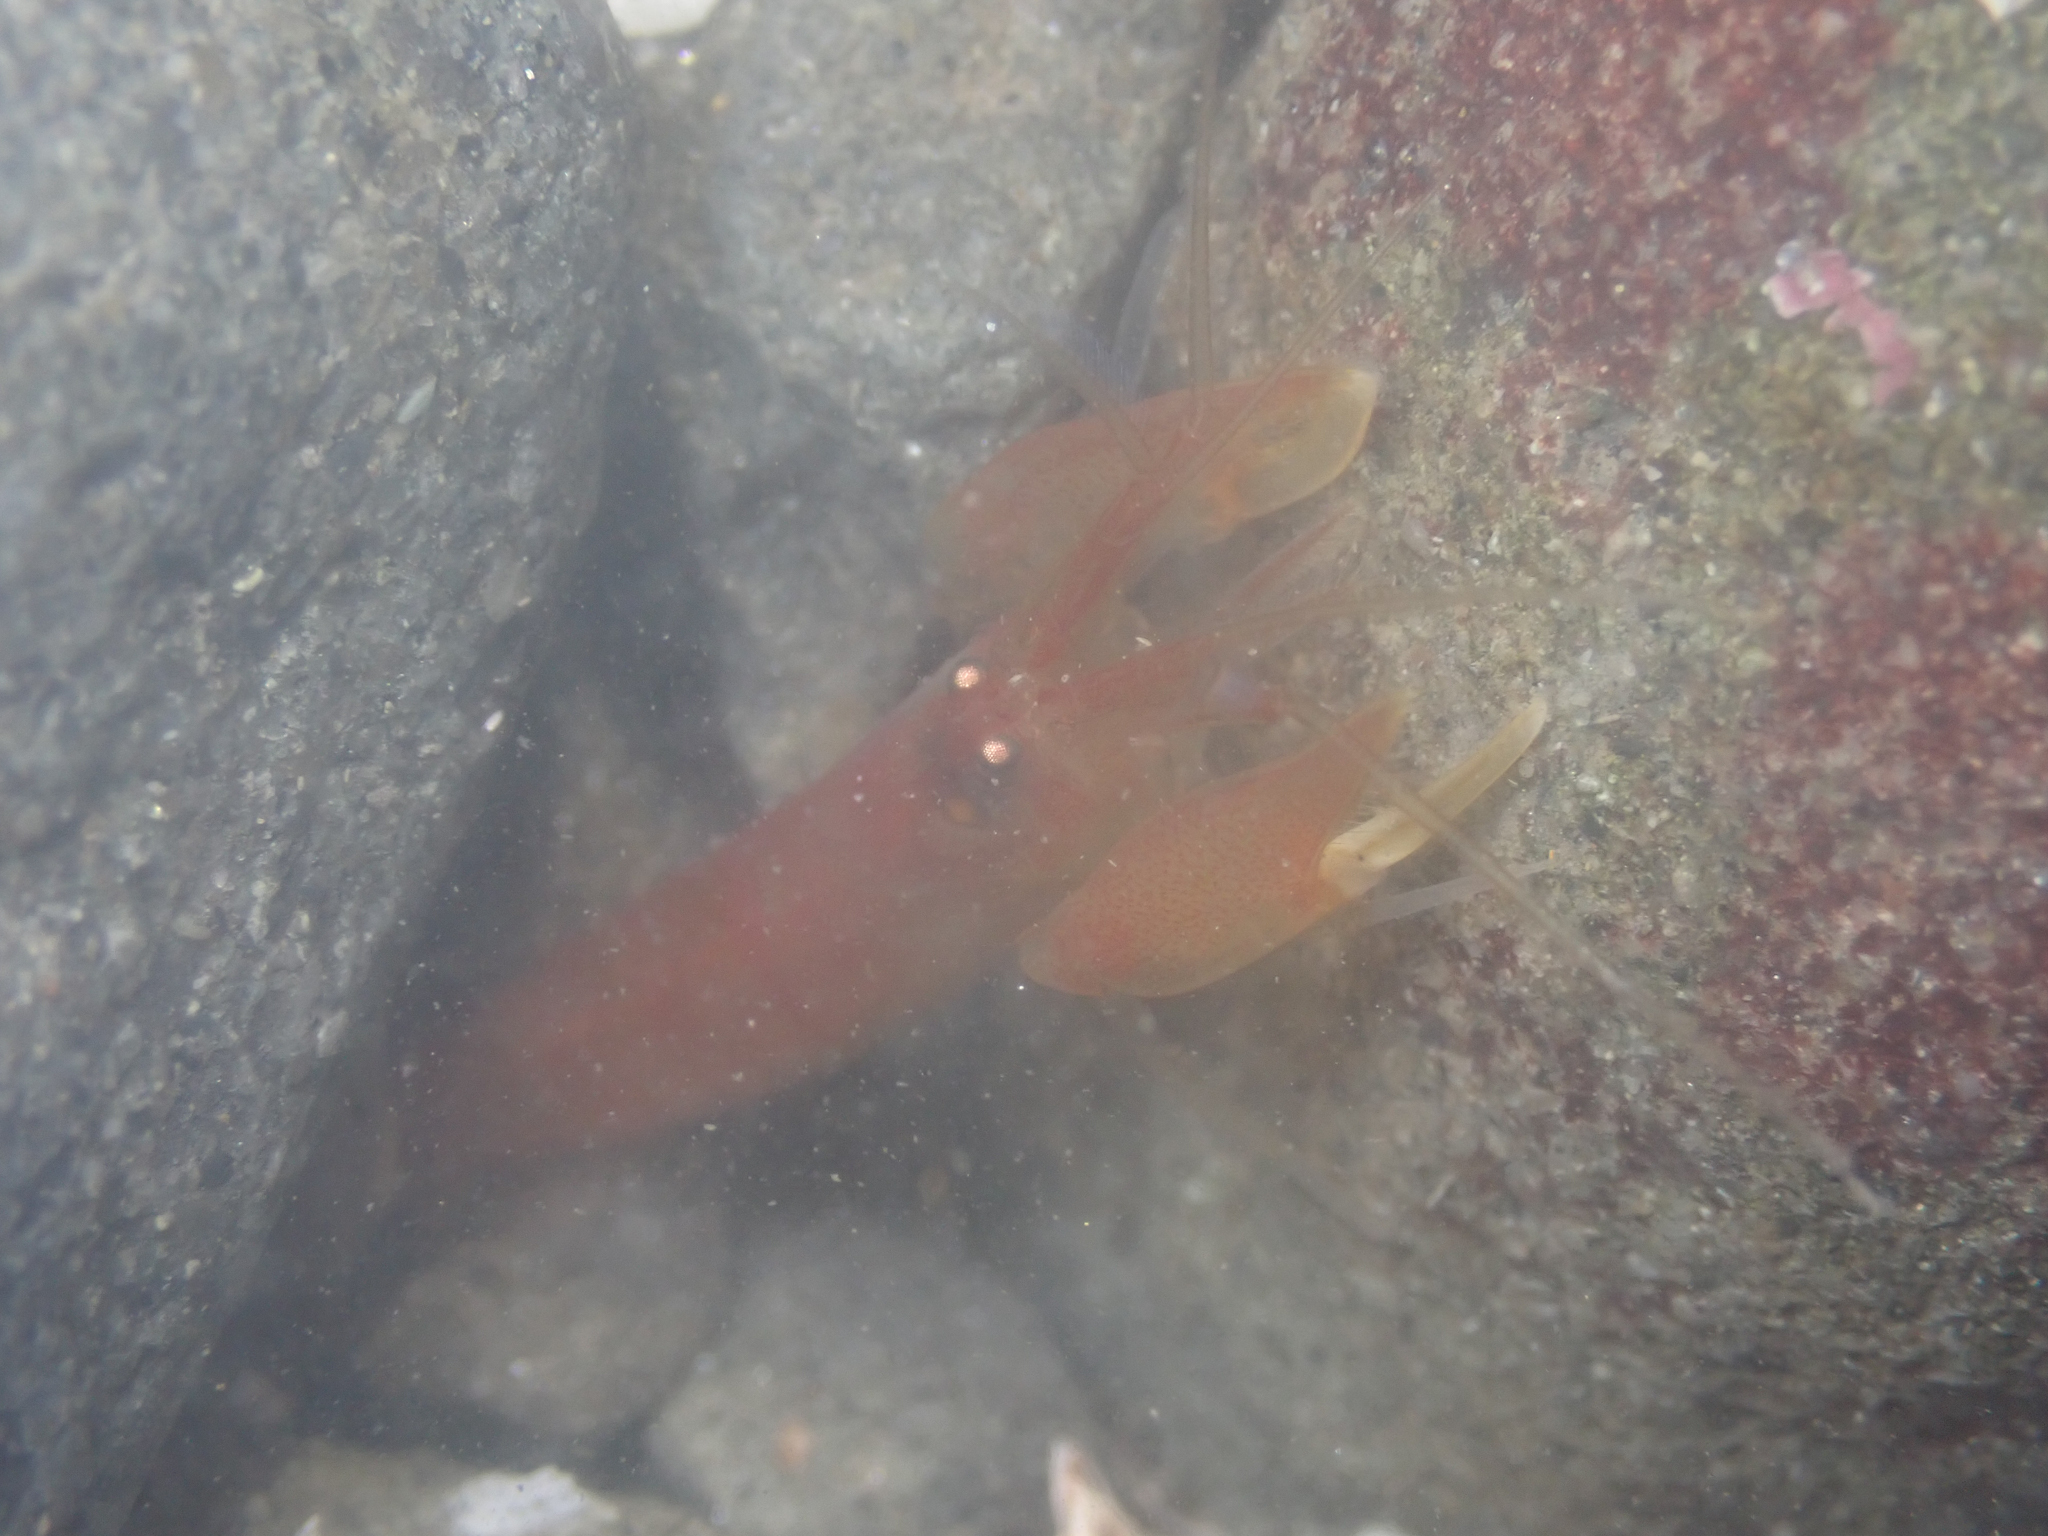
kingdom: Animalia
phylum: Arthropoda
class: Malacostraca
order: Decapoda
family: Alpheidae
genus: Betaeus
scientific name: Betaeus setosus
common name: Fuzzy hooded shrimp
